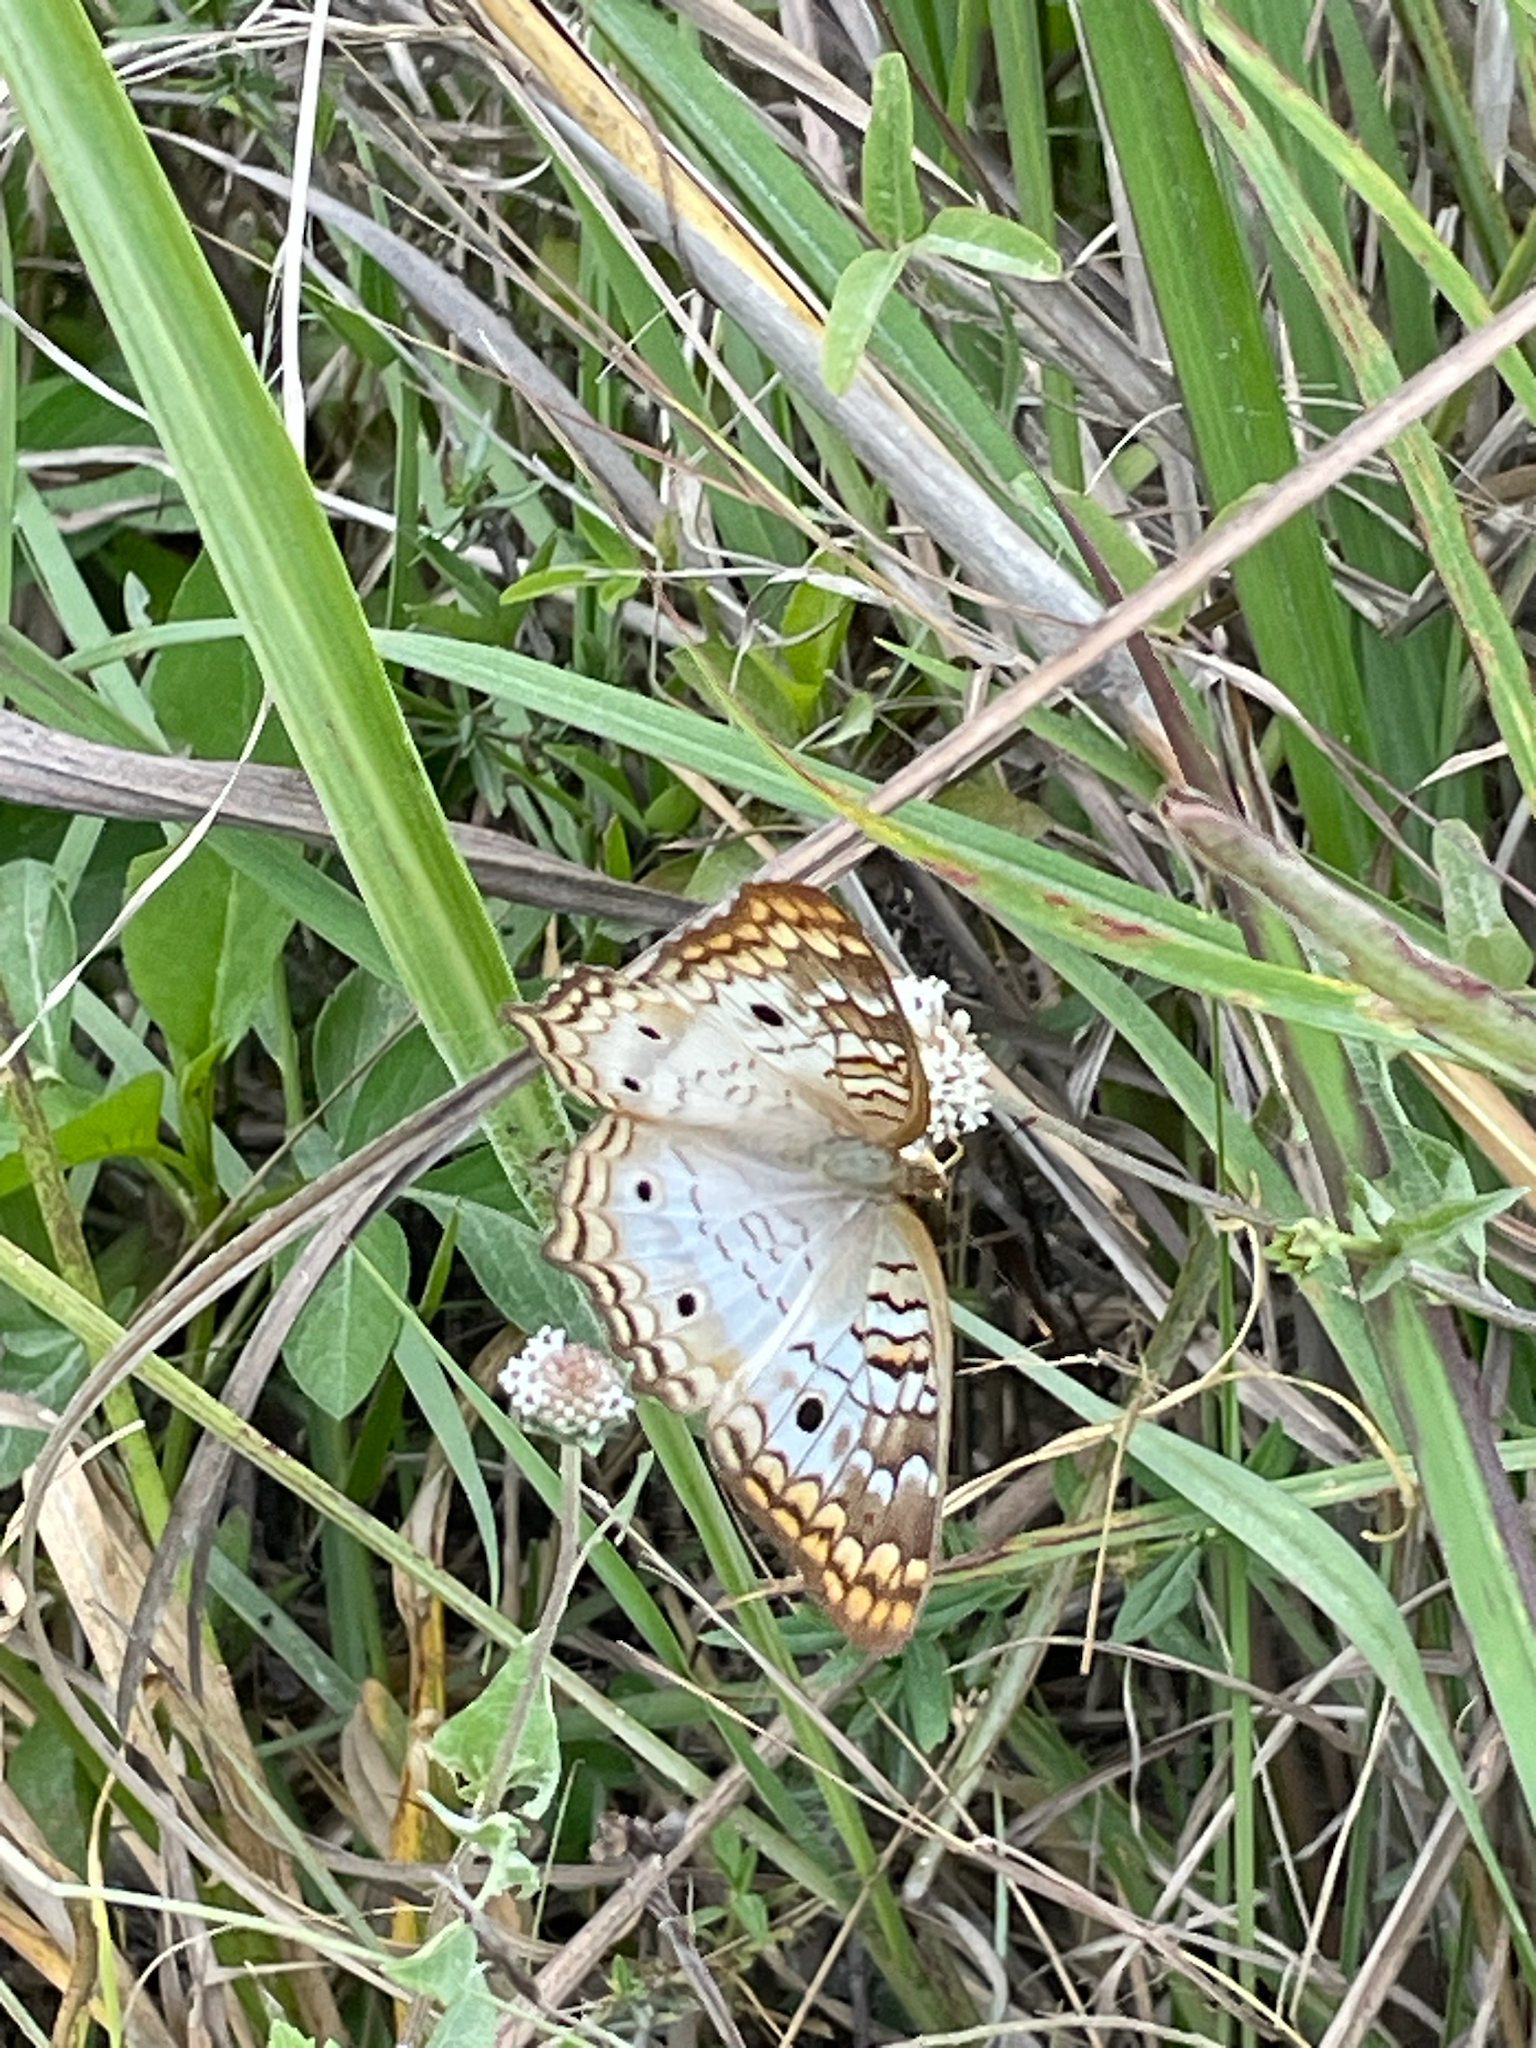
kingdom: Animalia
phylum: Arthropoda
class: Insecta
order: Lepidoptera
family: Nymphalidae
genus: Anartia
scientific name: Anartia jatrophae
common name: White peacock
